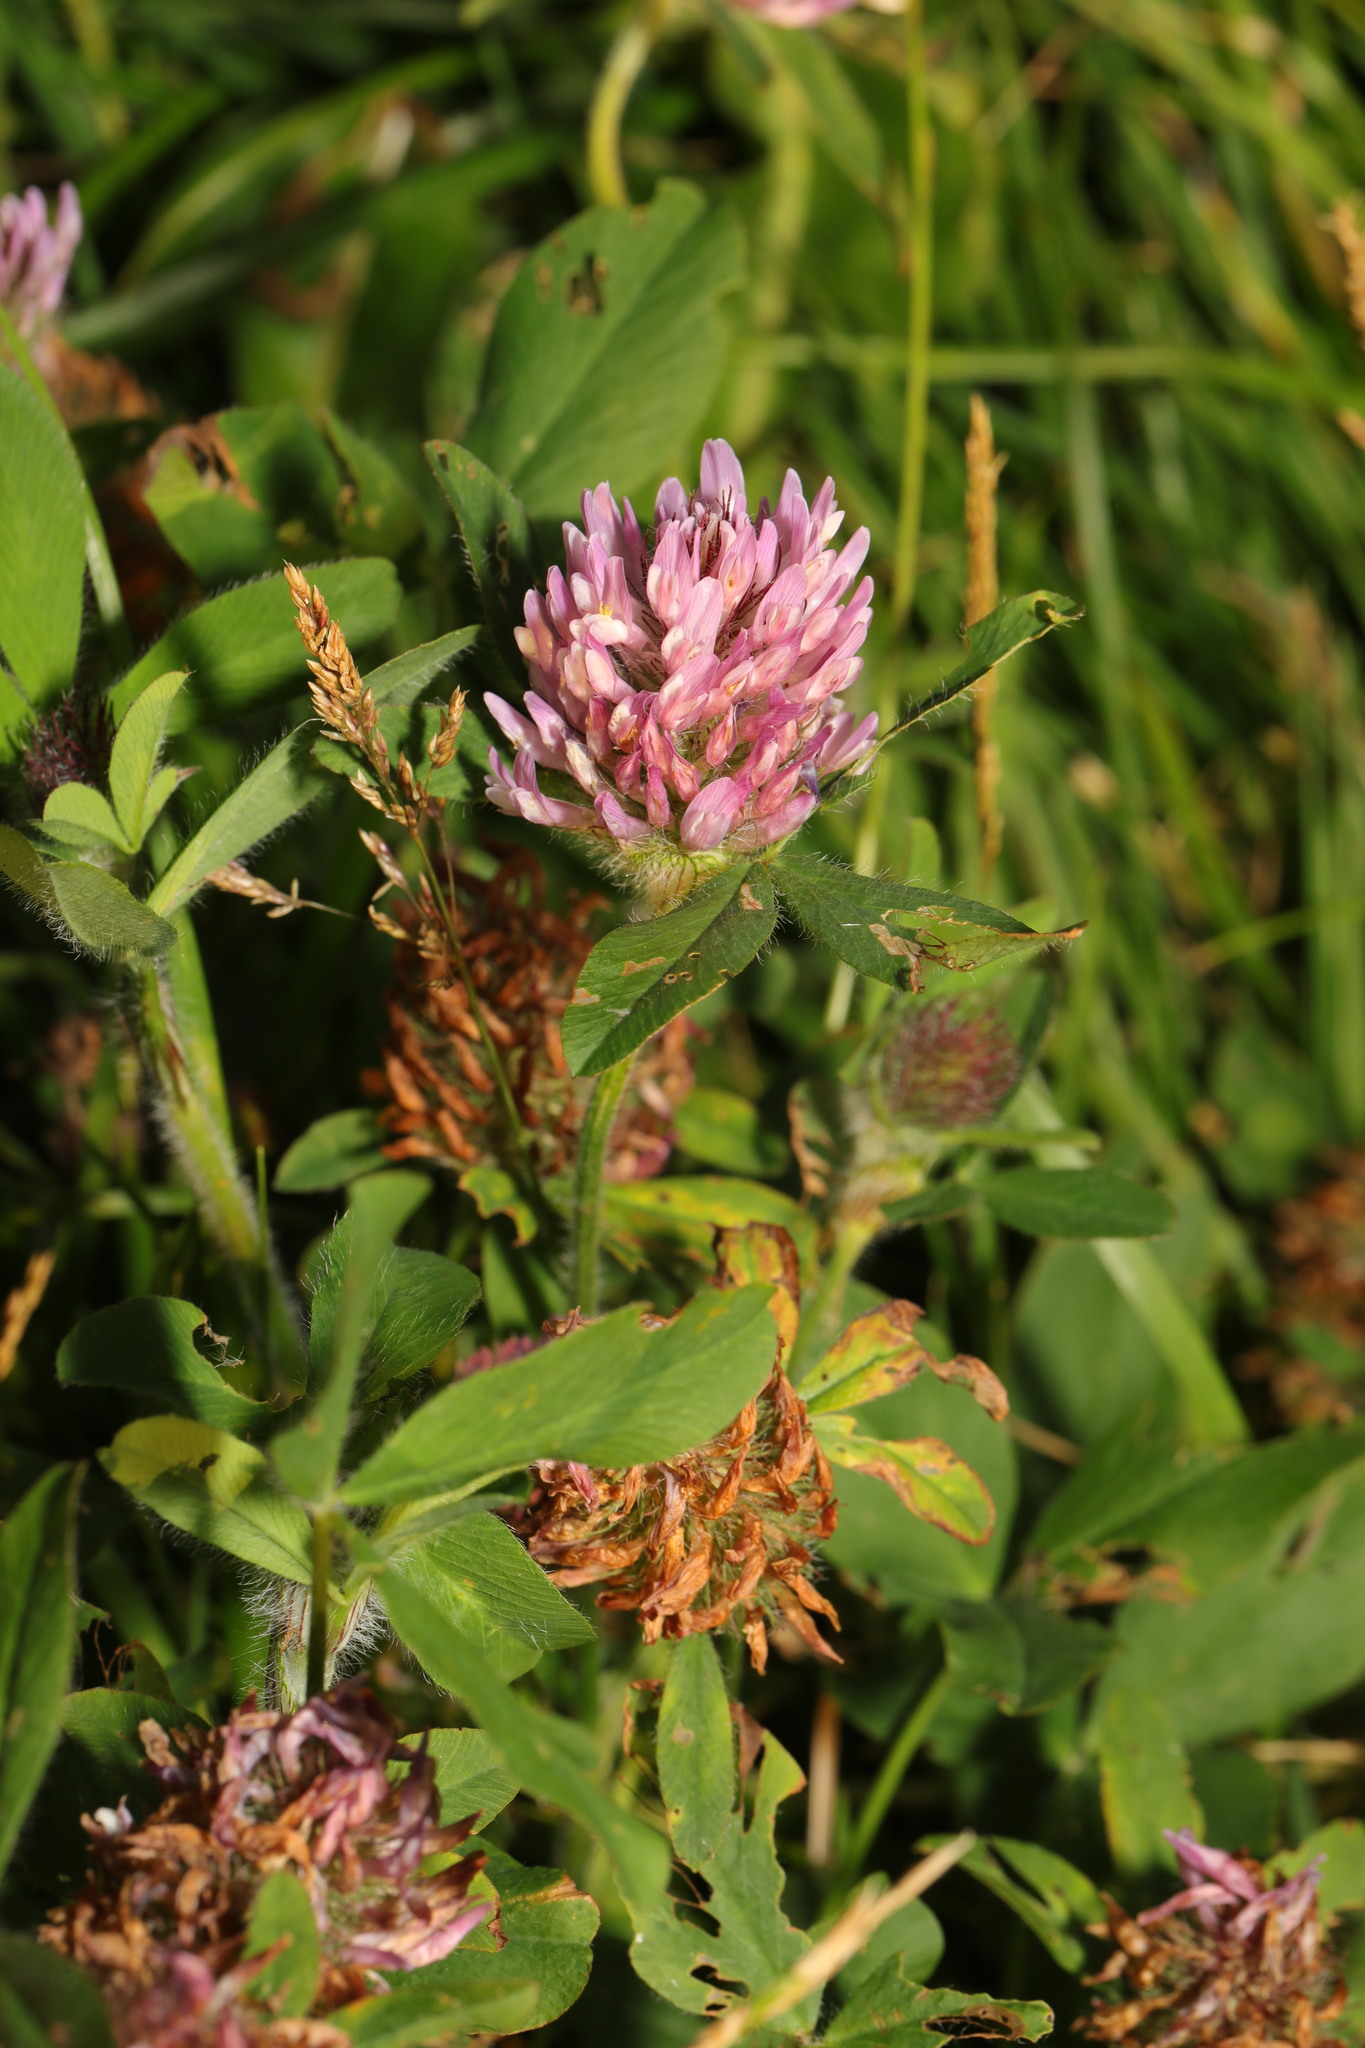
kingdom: Plantae
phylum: Tracheophyta
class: Magnoliopsida
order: Fabales
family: Fabaceae
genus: Trifolium
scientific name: Trifolium pratense
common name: Red clover
